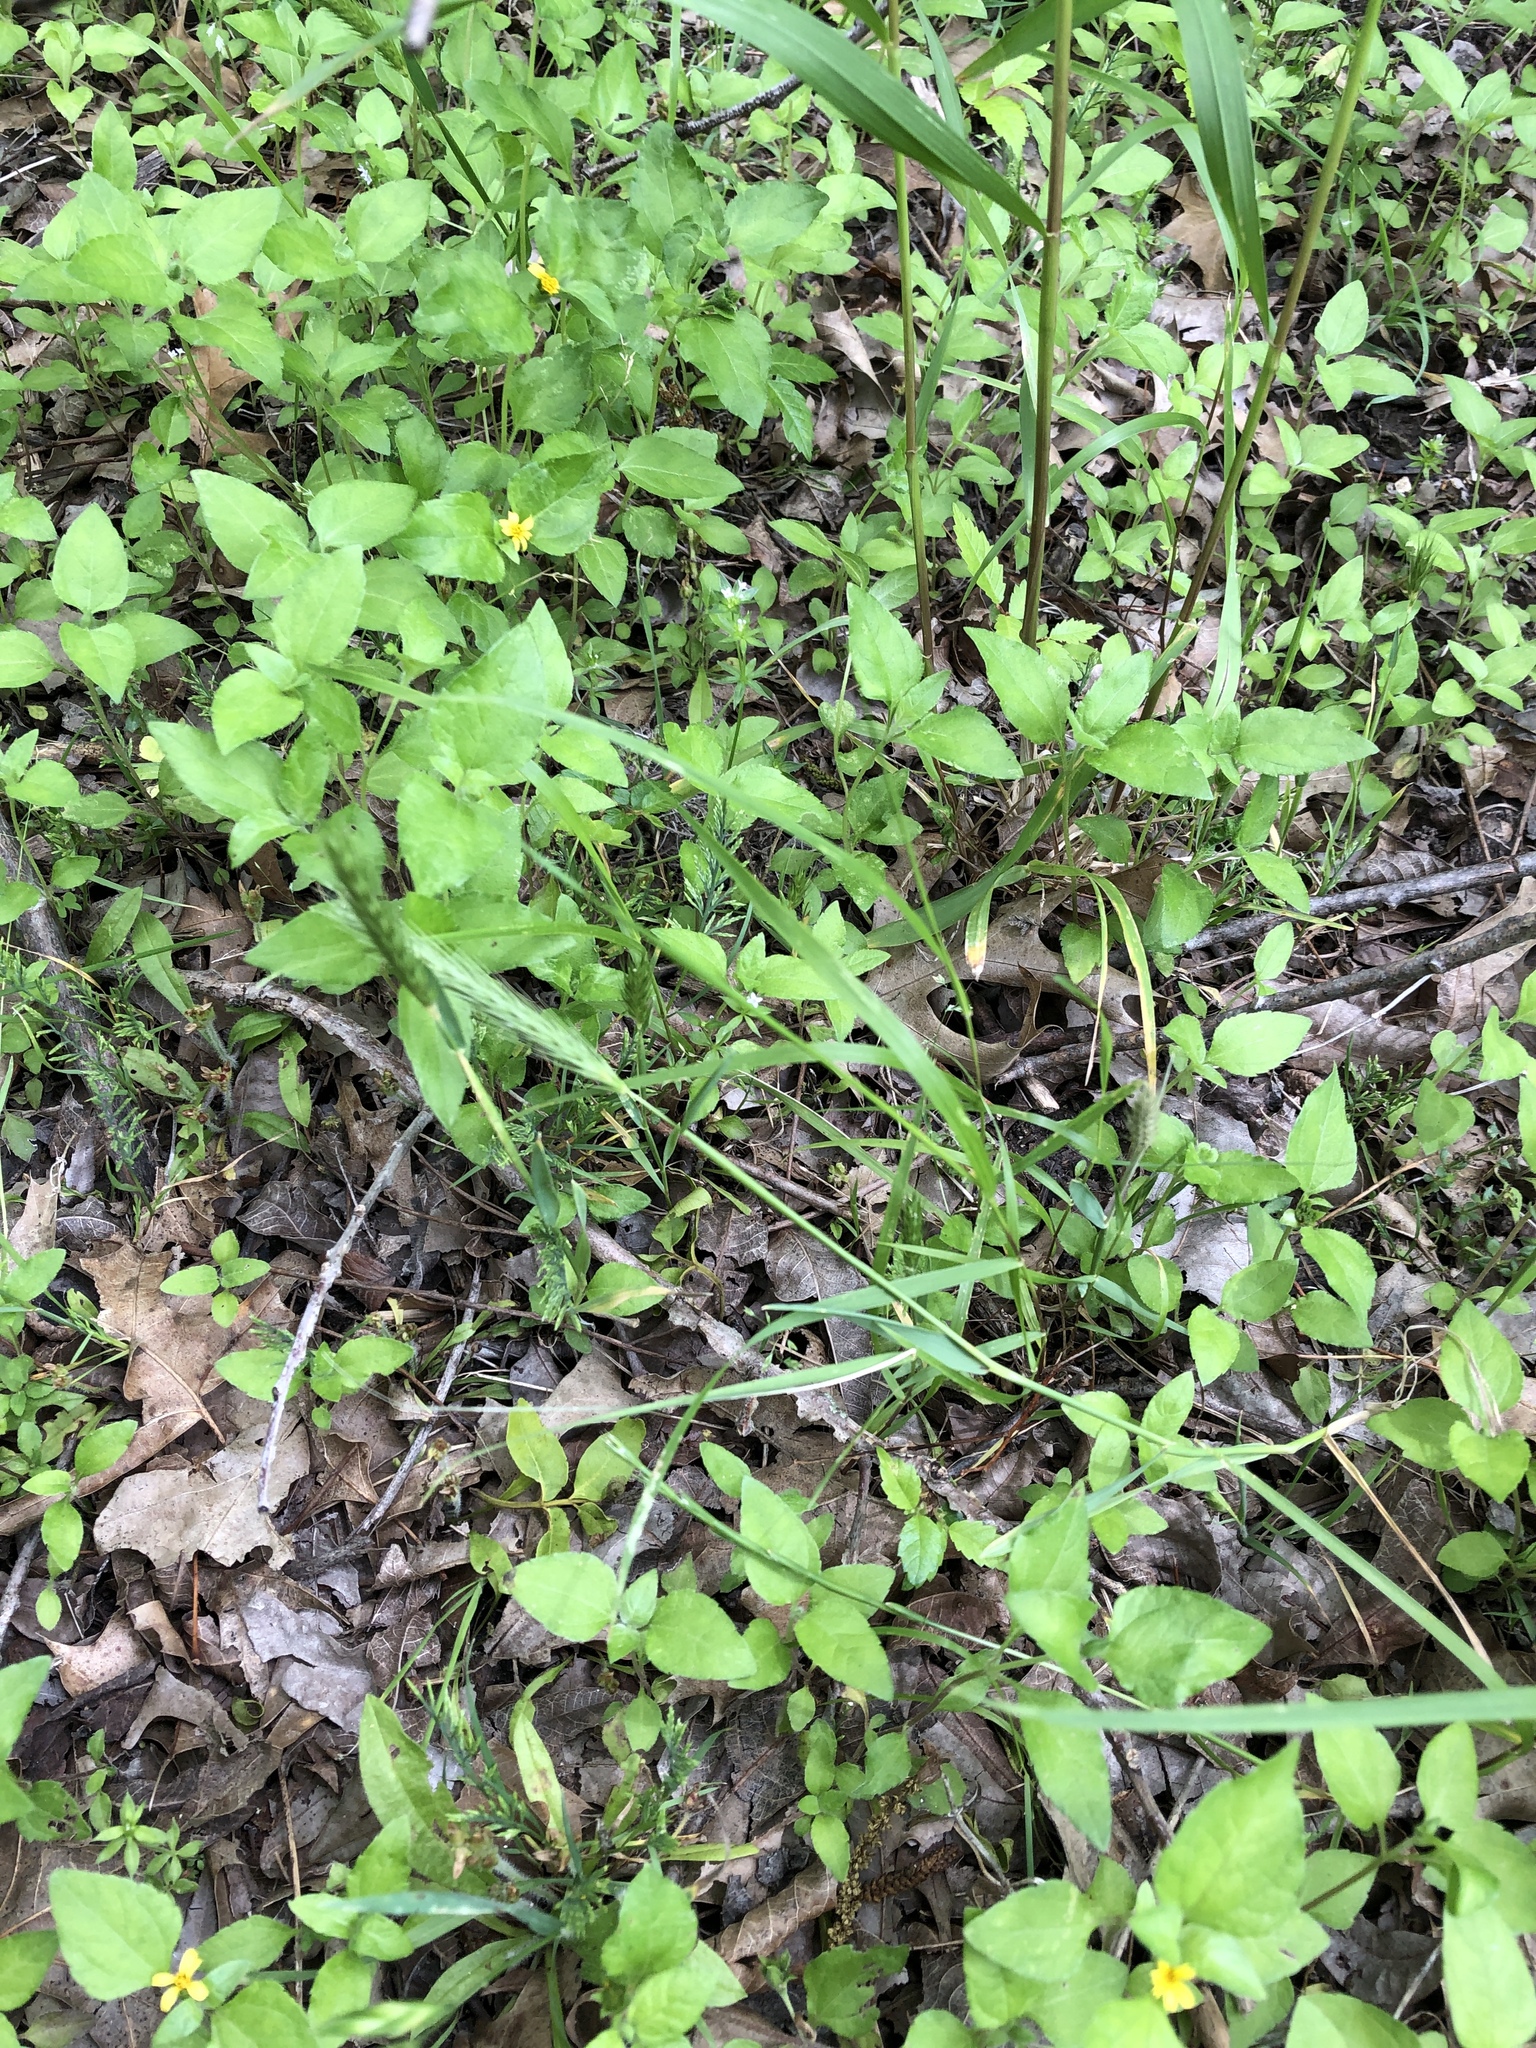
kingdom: Plantae
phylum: Tracheophyta
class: Liliopsida
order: Poales
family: Poaceae
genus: Hordeum
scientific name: Hordeum pusillum
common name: Little barley
